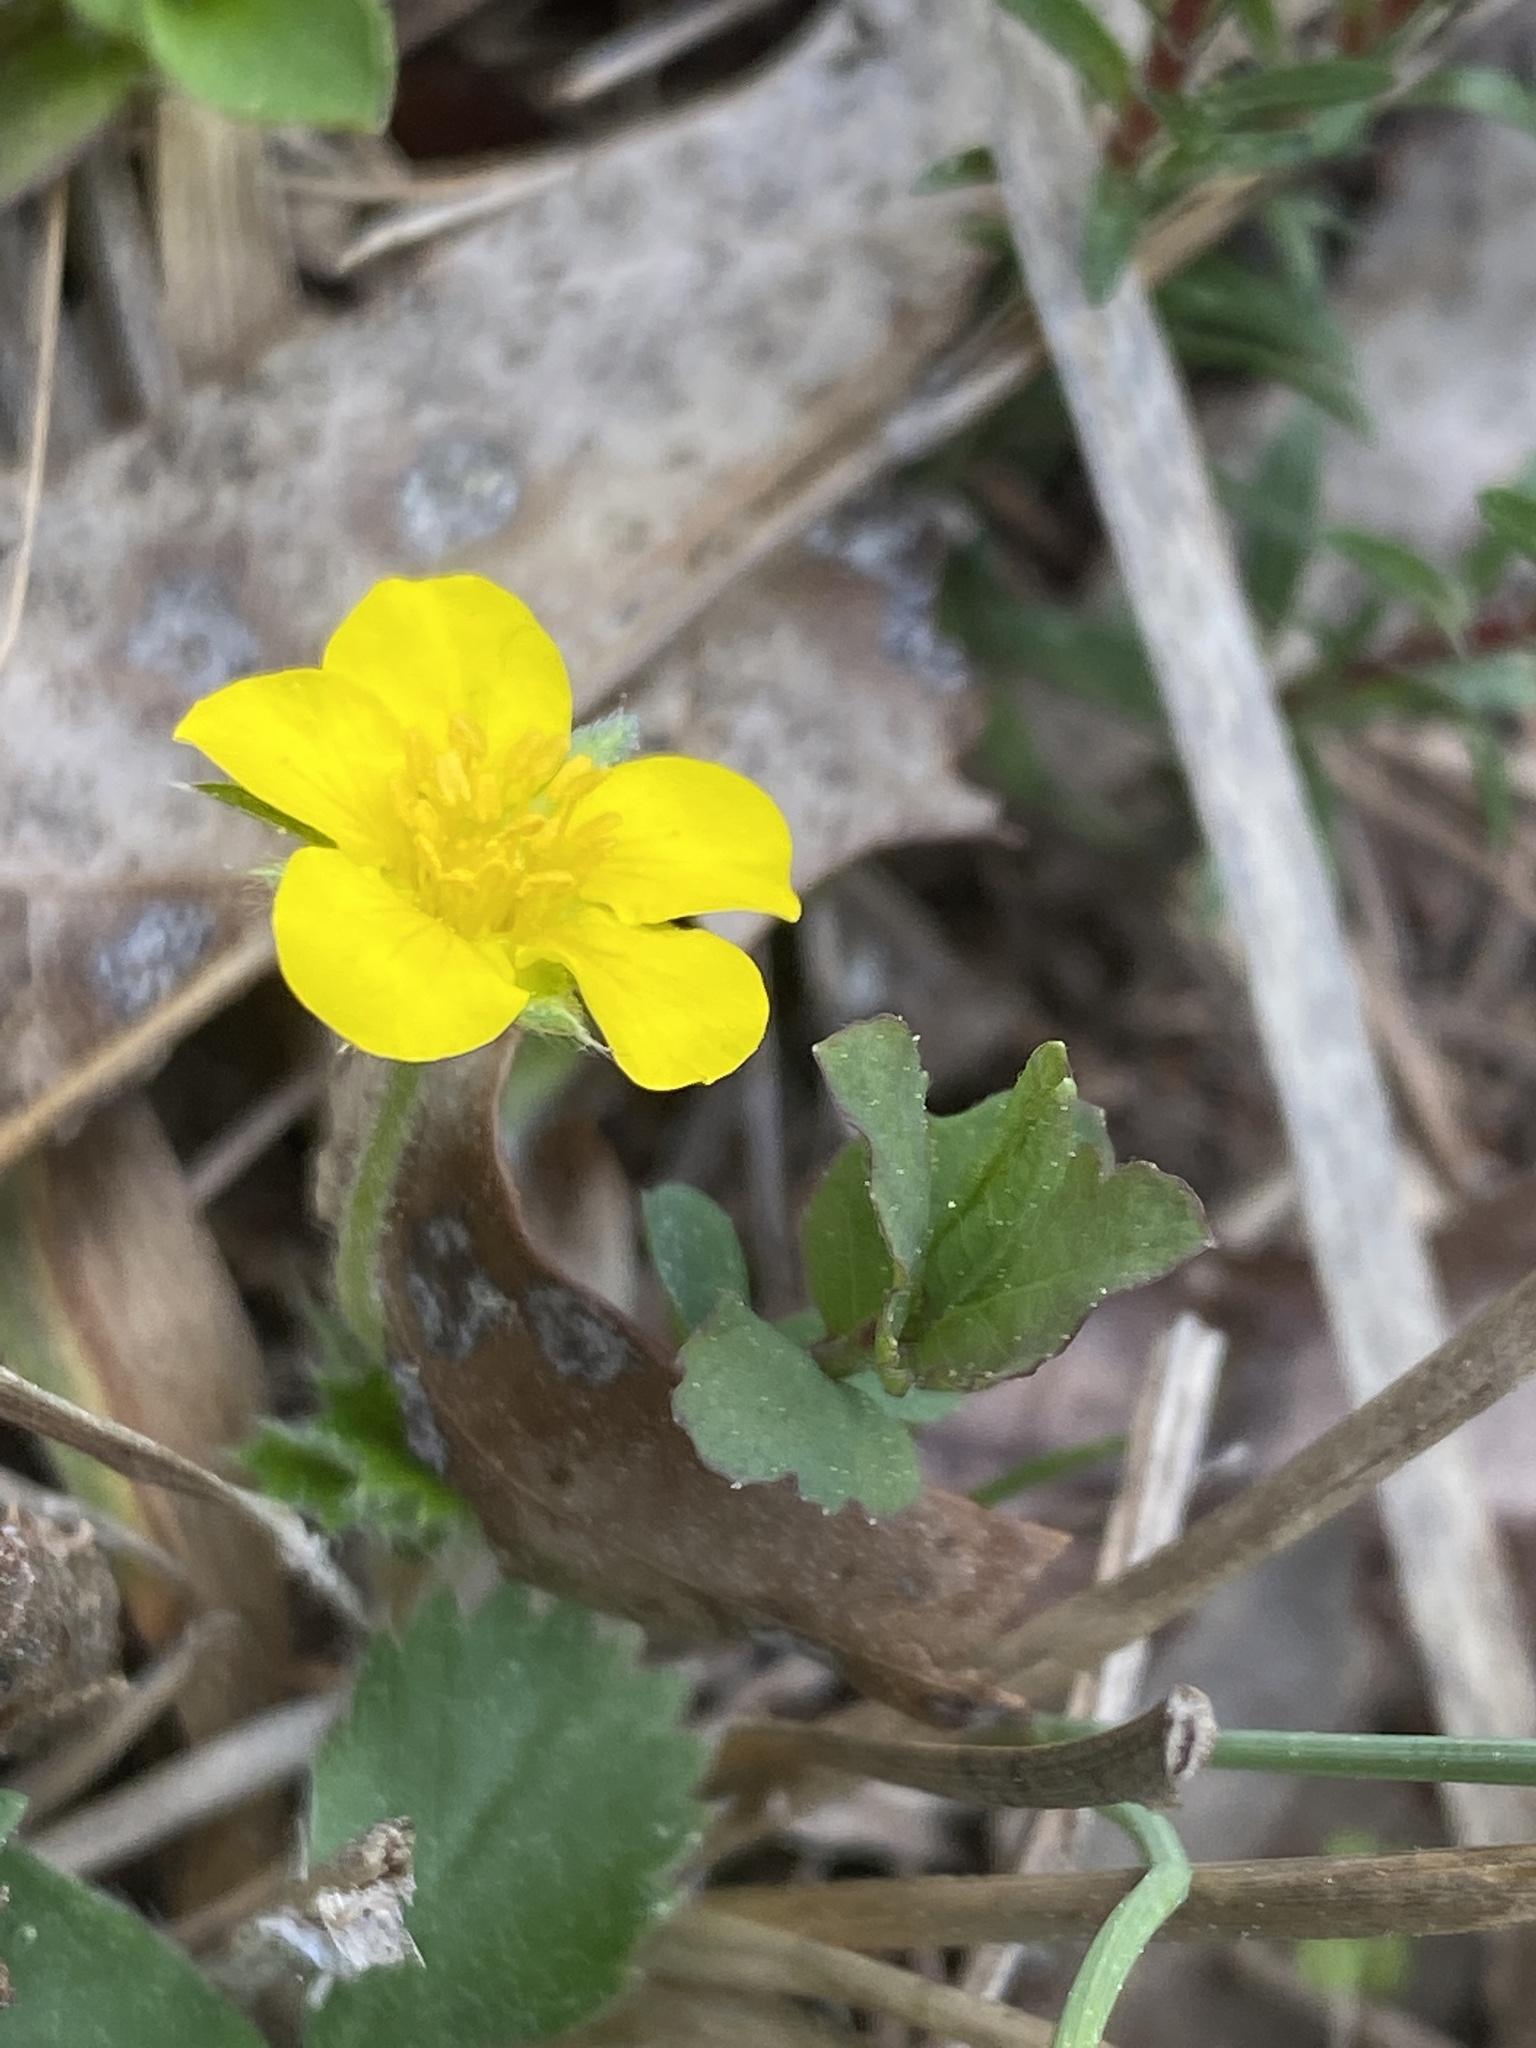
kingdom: Plantae
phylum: Tracheophyta
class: Magnoliopsida
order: Rosales
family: Rosaceae
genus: Potentilla
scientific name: Potentilla canadensis
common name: Canada cinquefoil
